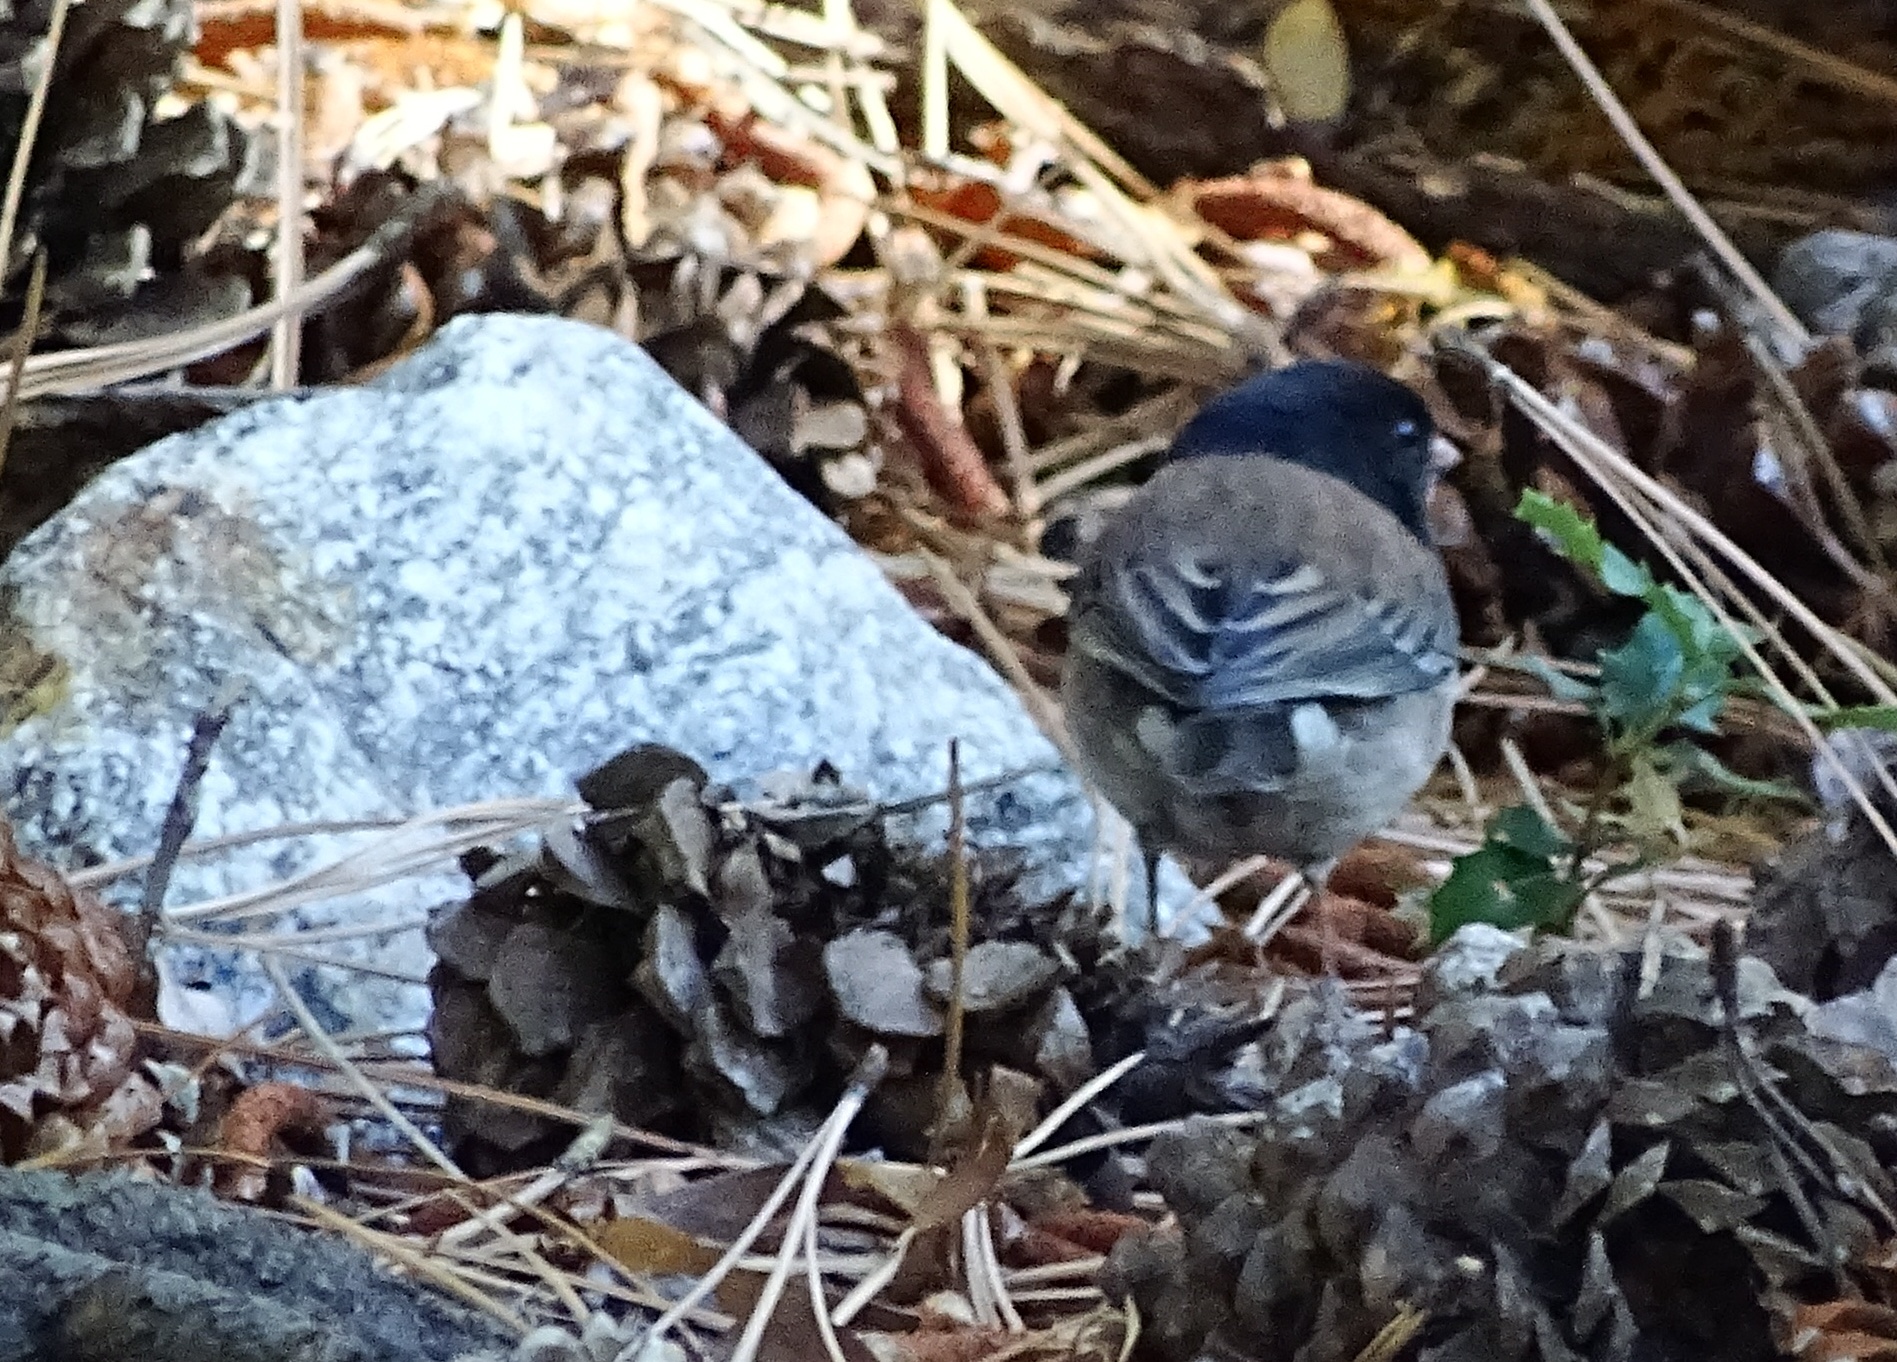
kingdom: Animalia
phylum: Chordata
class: Aves
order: Passeriformes
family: Passerellidae
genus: Junco
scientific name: Junco hyemalis
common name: Dark-eyed junco
